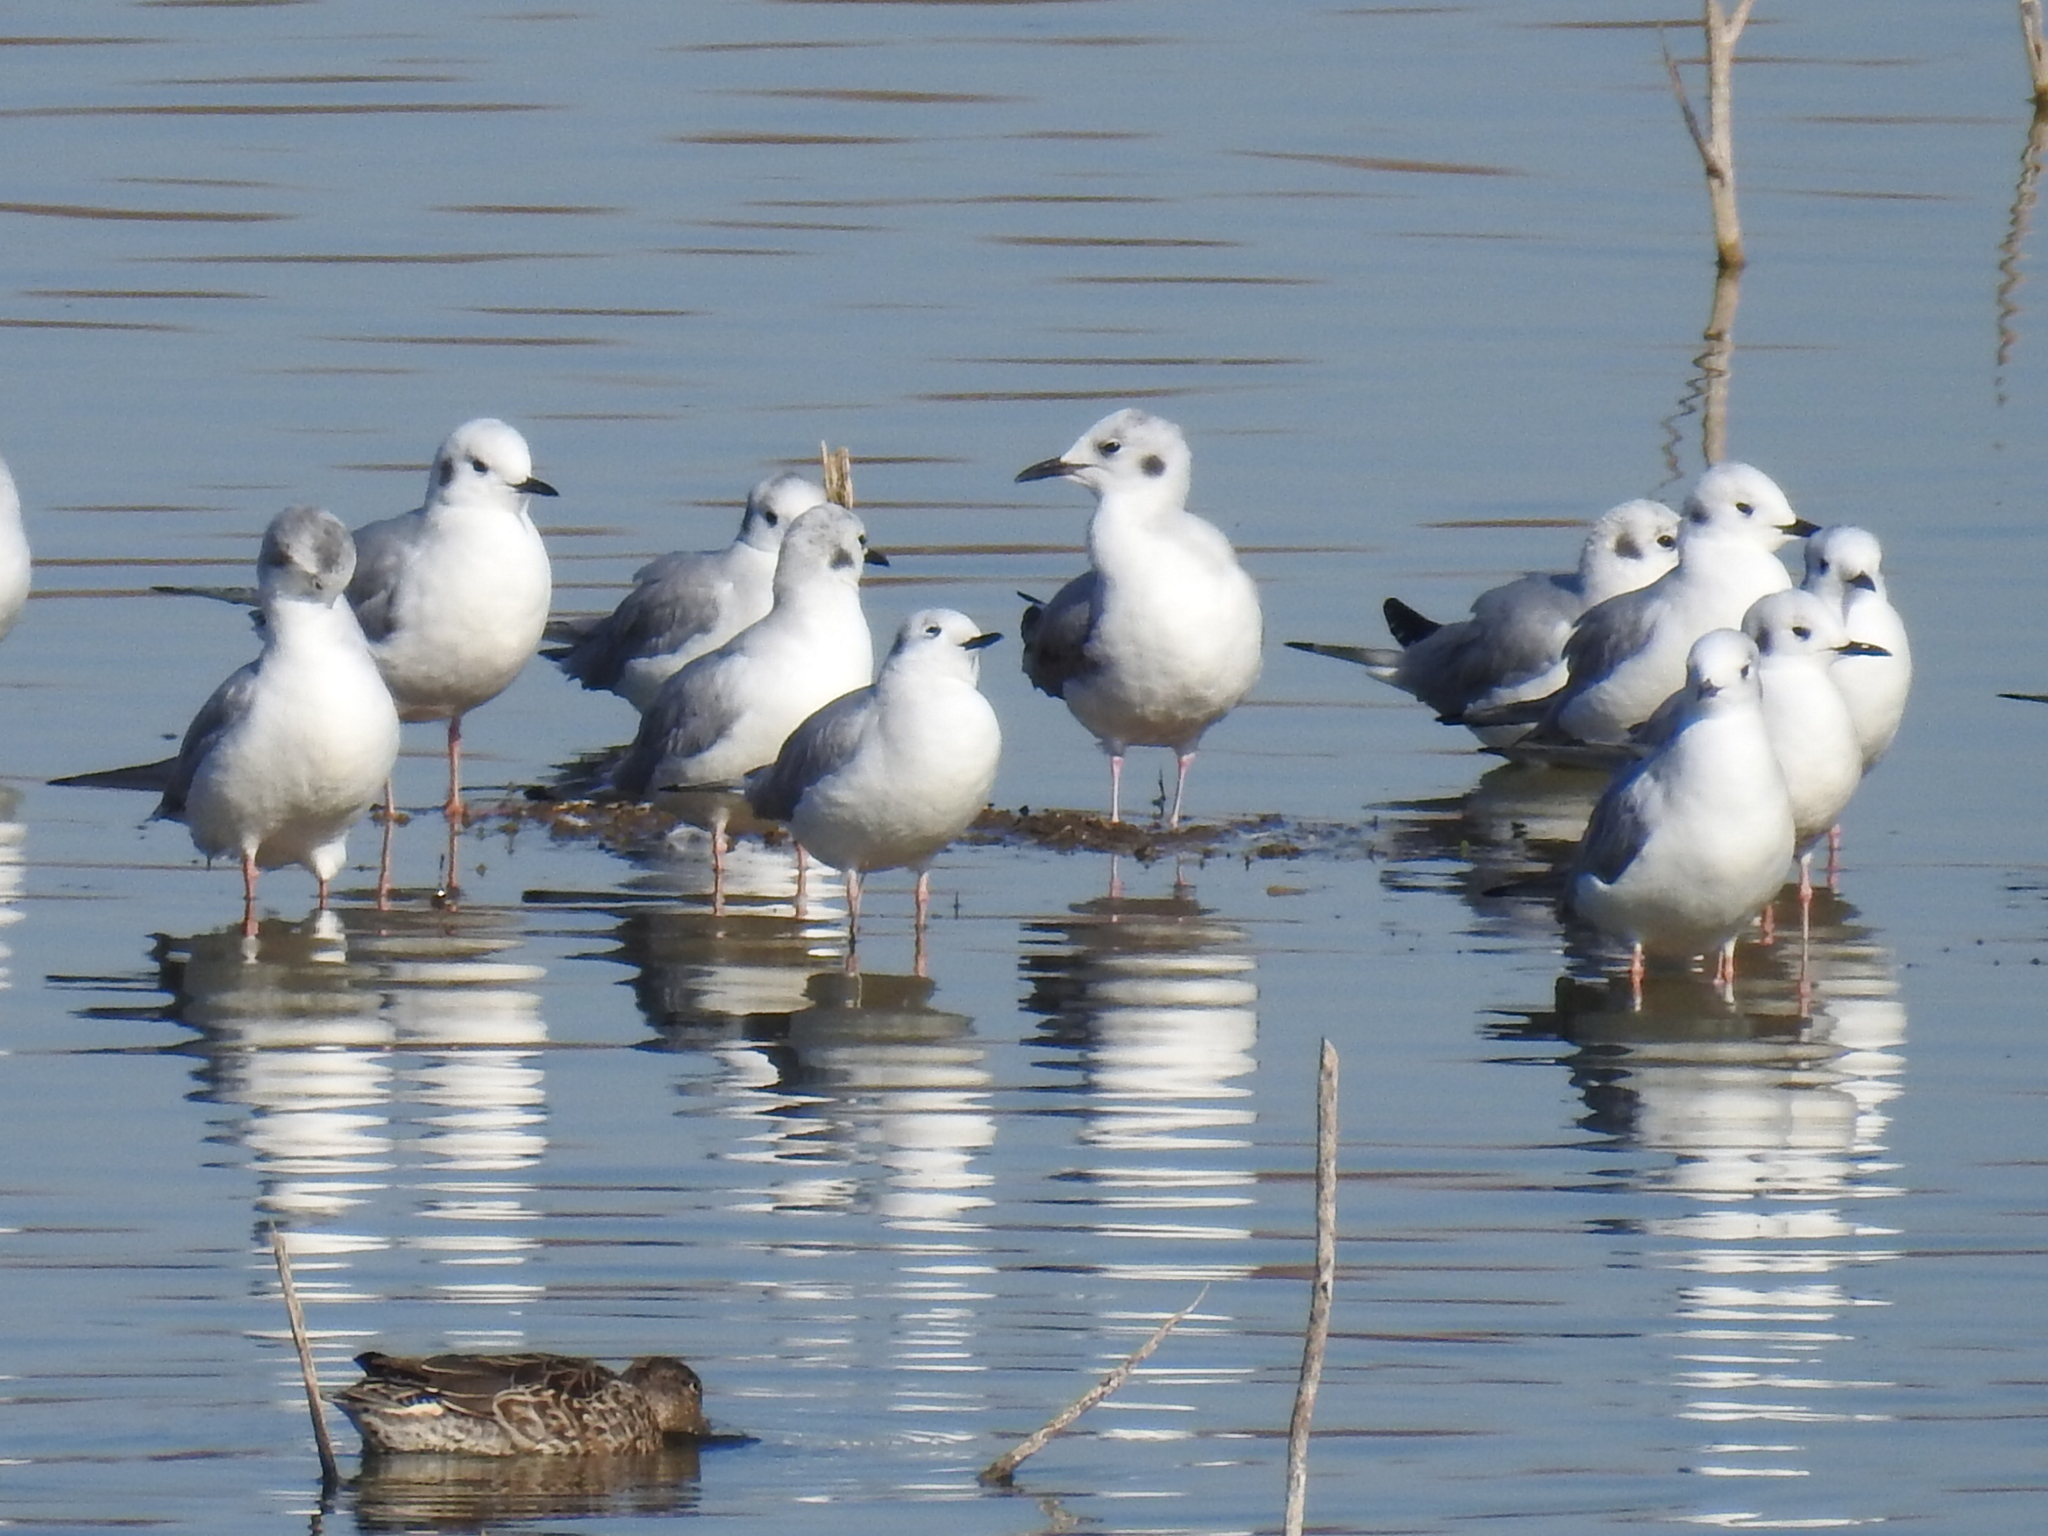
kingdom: Animalia
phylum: Chordata
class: Aves
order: Charadriiformes
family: Laridae
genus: Chroicocephalus
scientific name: Chroicocephalus philadelphia
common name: Bonaparte's gull
